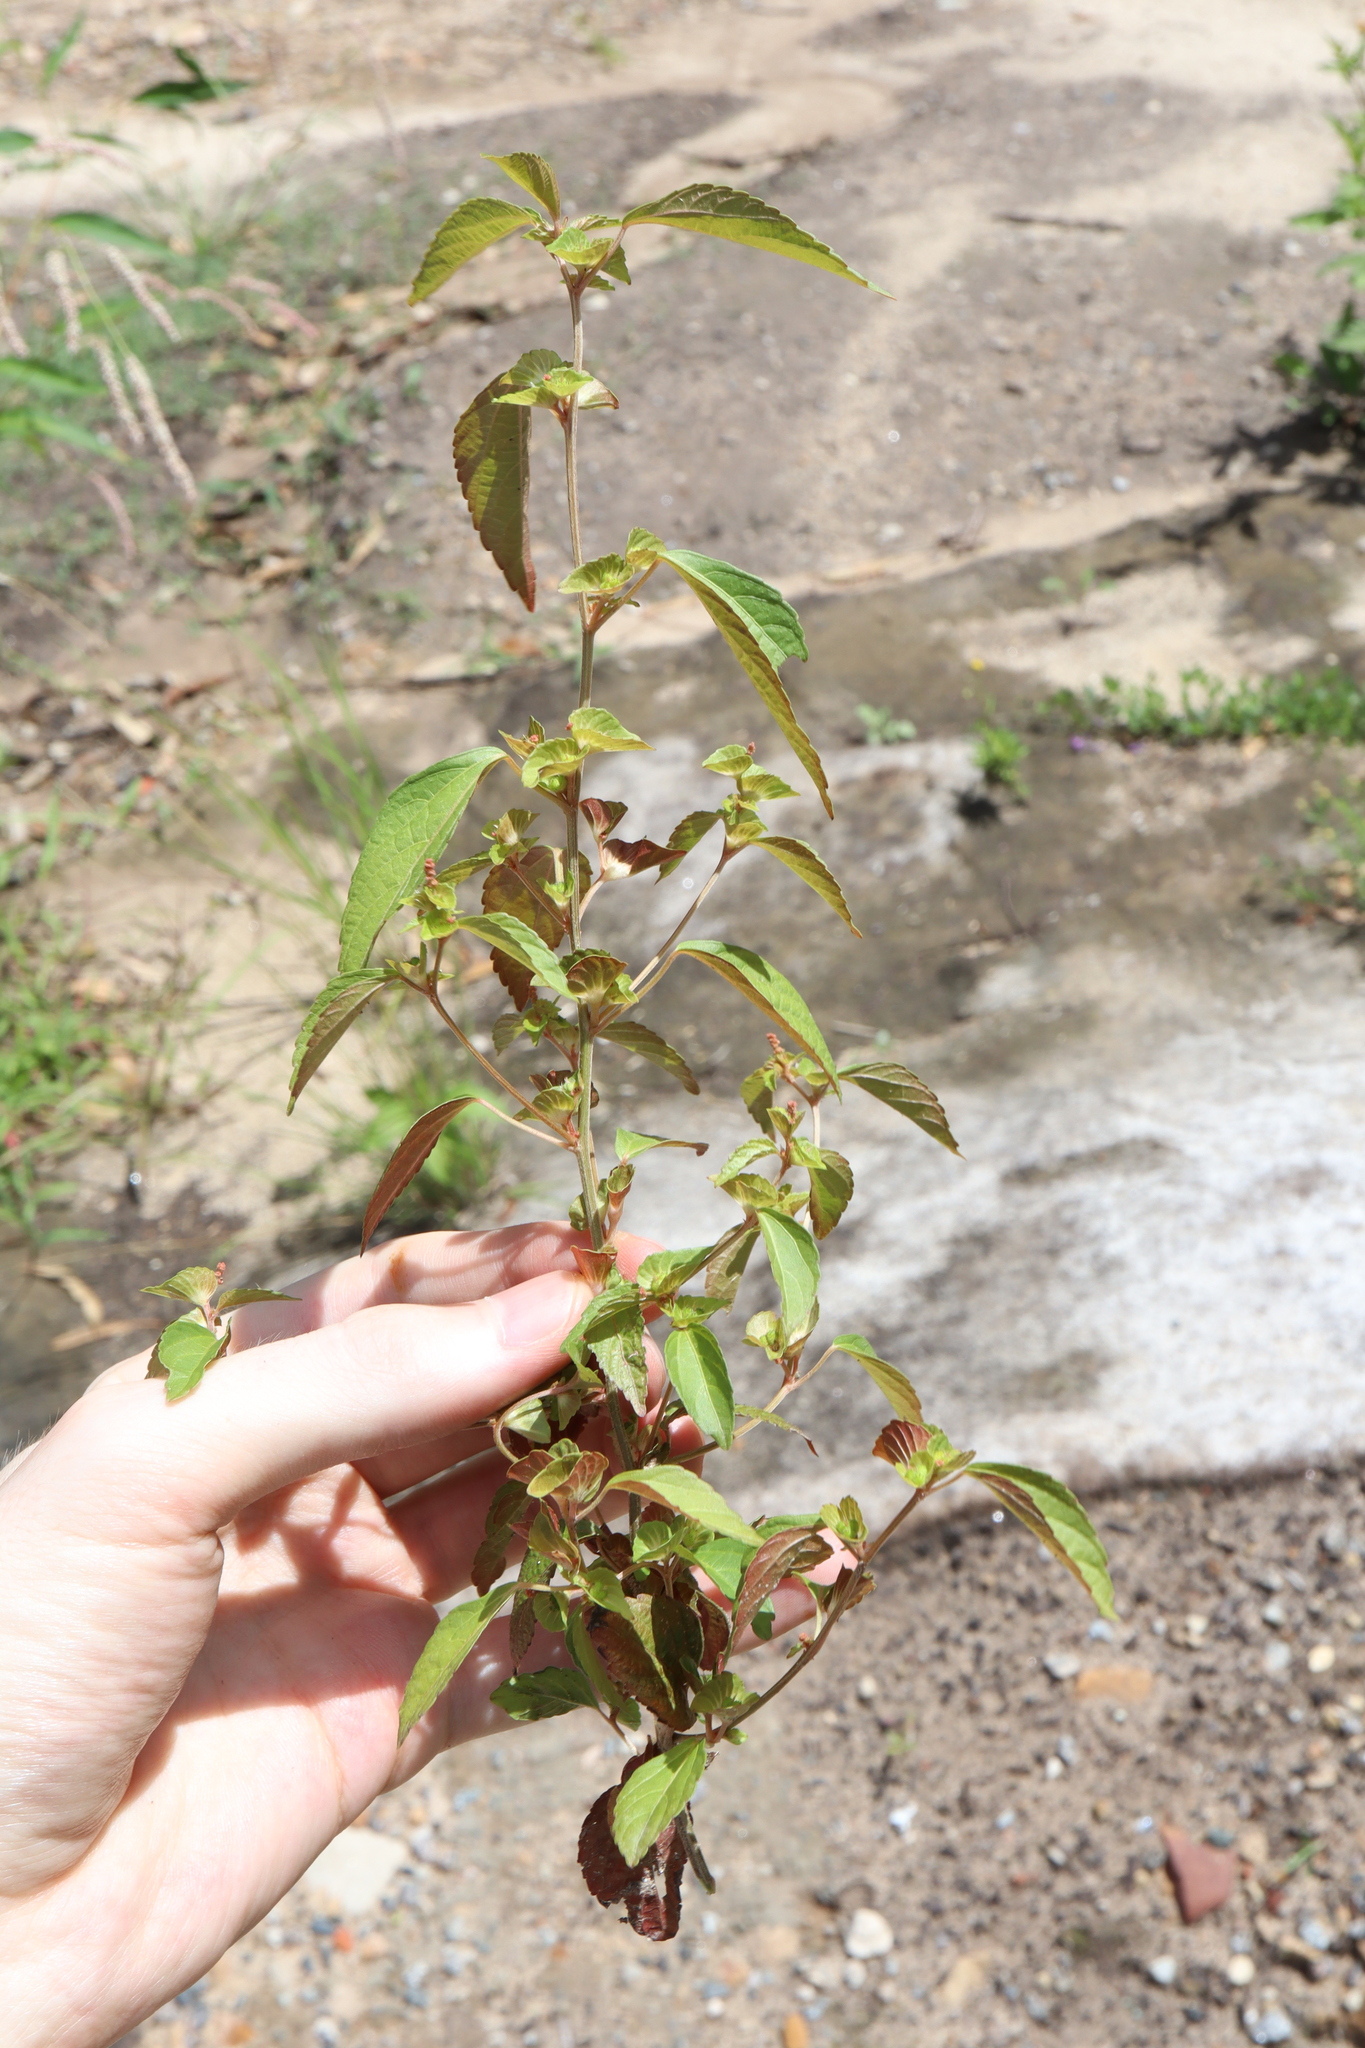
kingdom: Plantae
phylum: Tracheophyta
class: Magnoliopsida
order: Malpighiales
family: Euphorbiaceae
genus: Acalypha
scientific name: Acalypha australis
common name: Asian copperleaf
